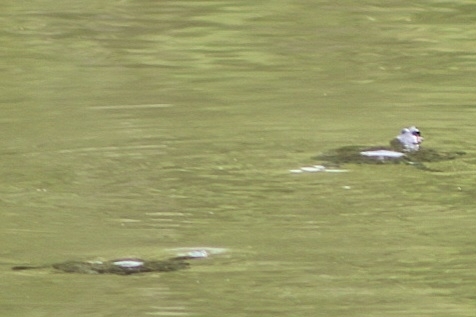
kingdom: Animalia
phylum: Chordata
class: Testudines
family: Emydidae
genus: Trachemys
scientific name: Trachemys scripta
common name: Slider
